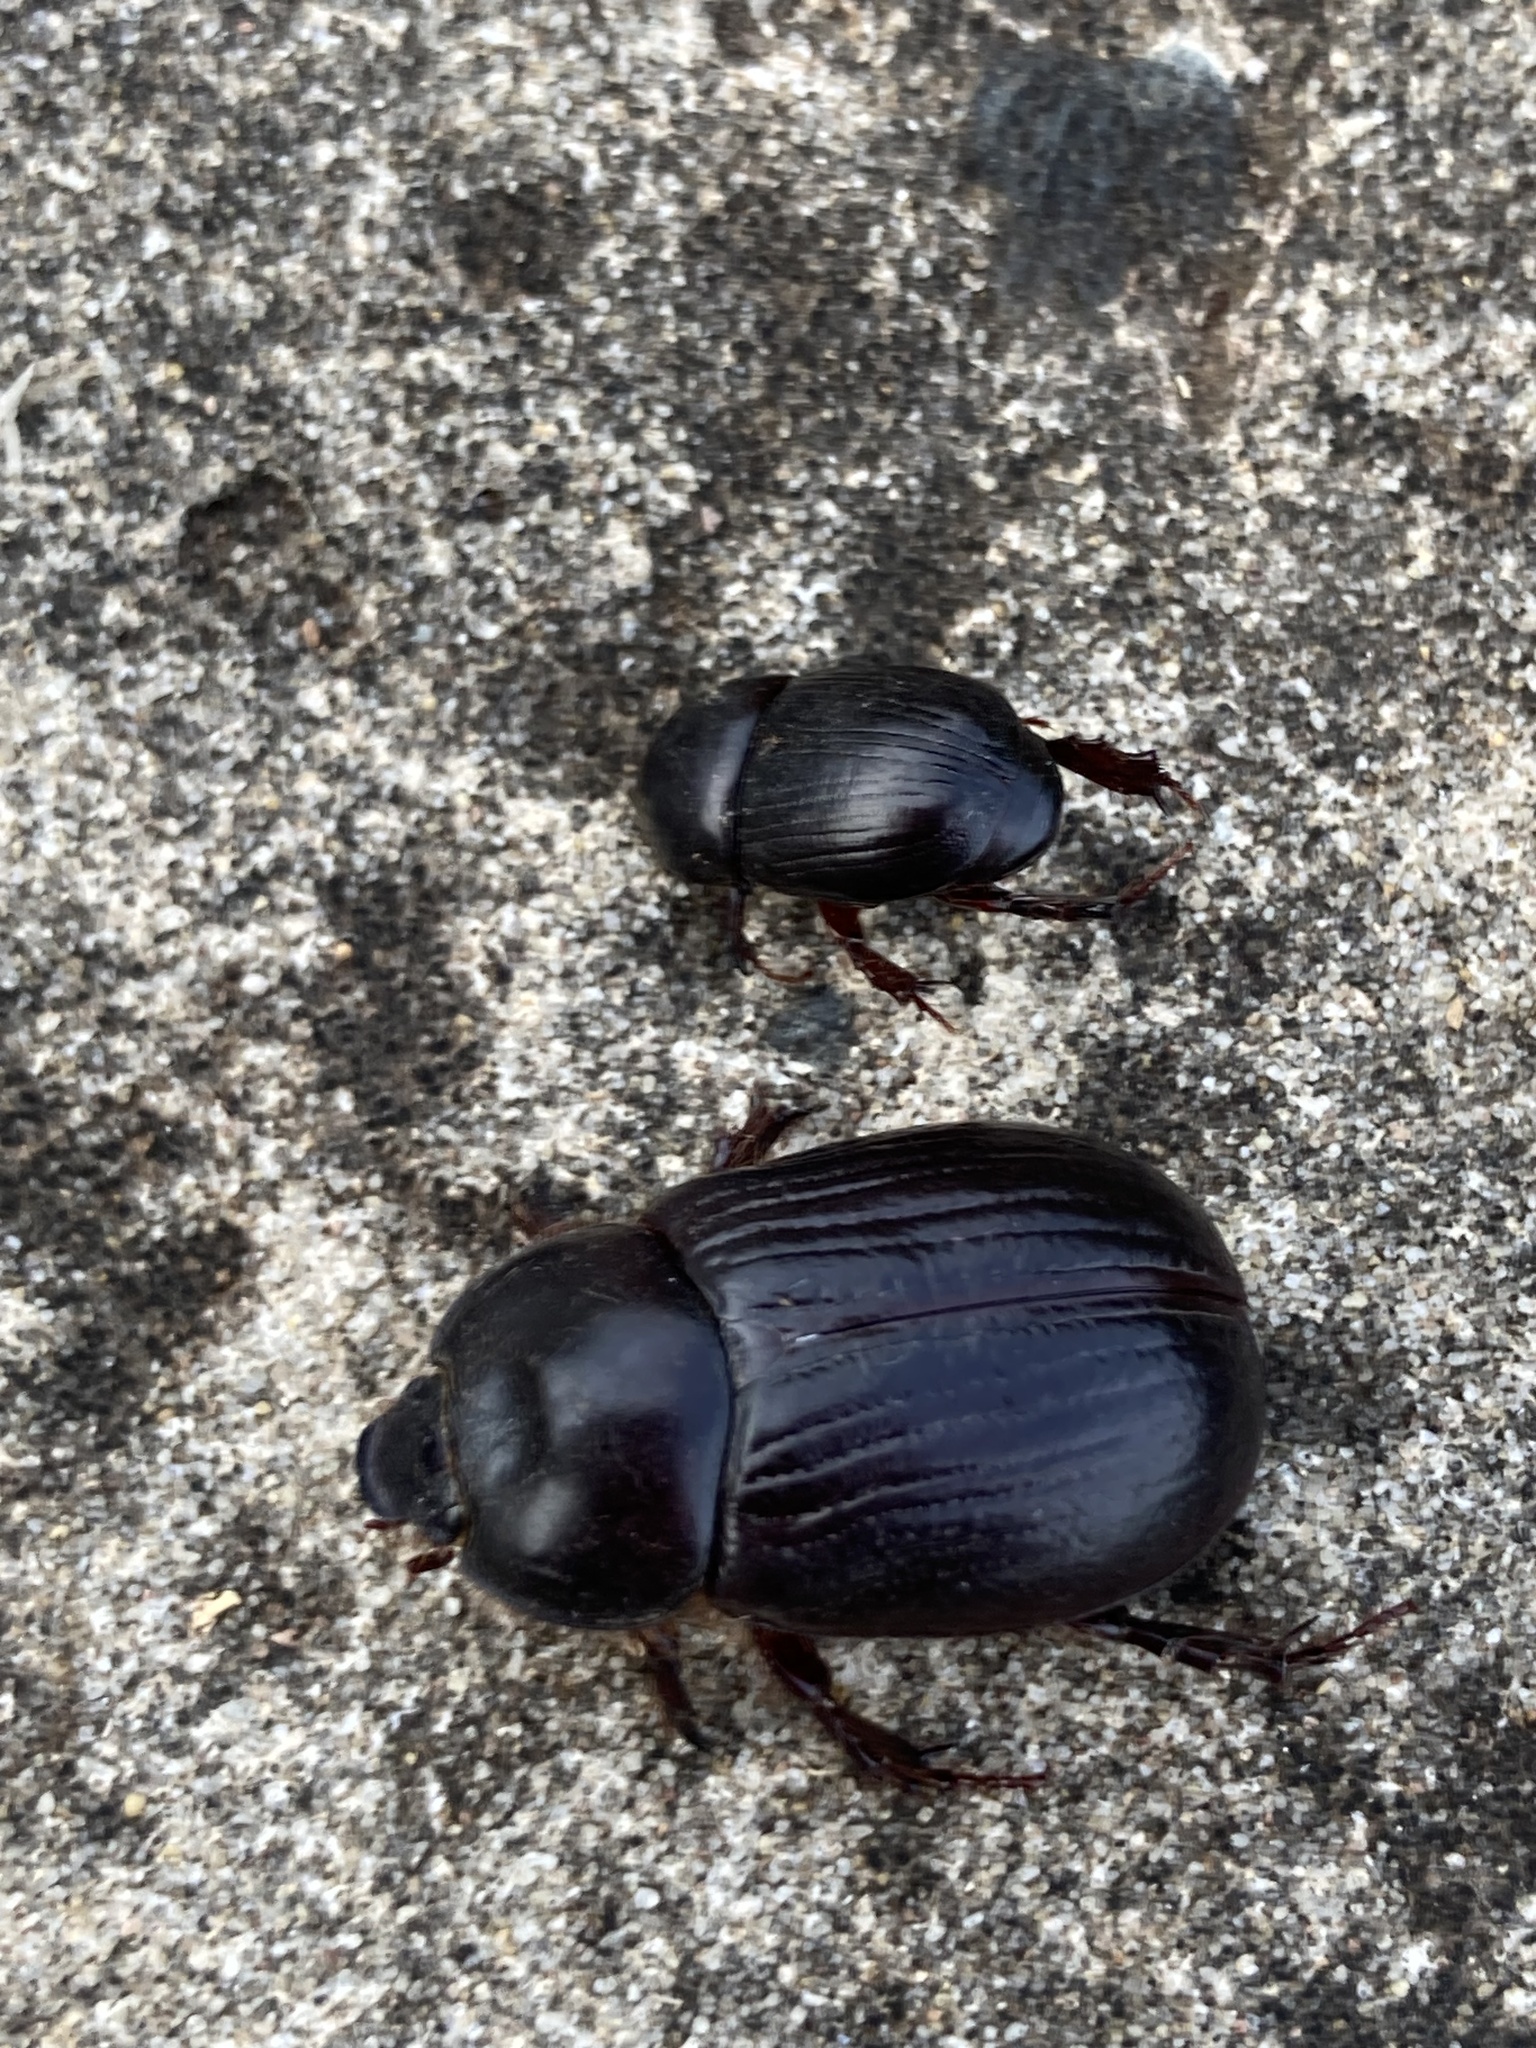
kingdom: Animalia
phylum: Arthropoda
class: Insecta
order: Coleoptera
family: Scarabaeidae
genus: Heteronychus
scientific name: Heteronychus arator
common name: African black beetle
